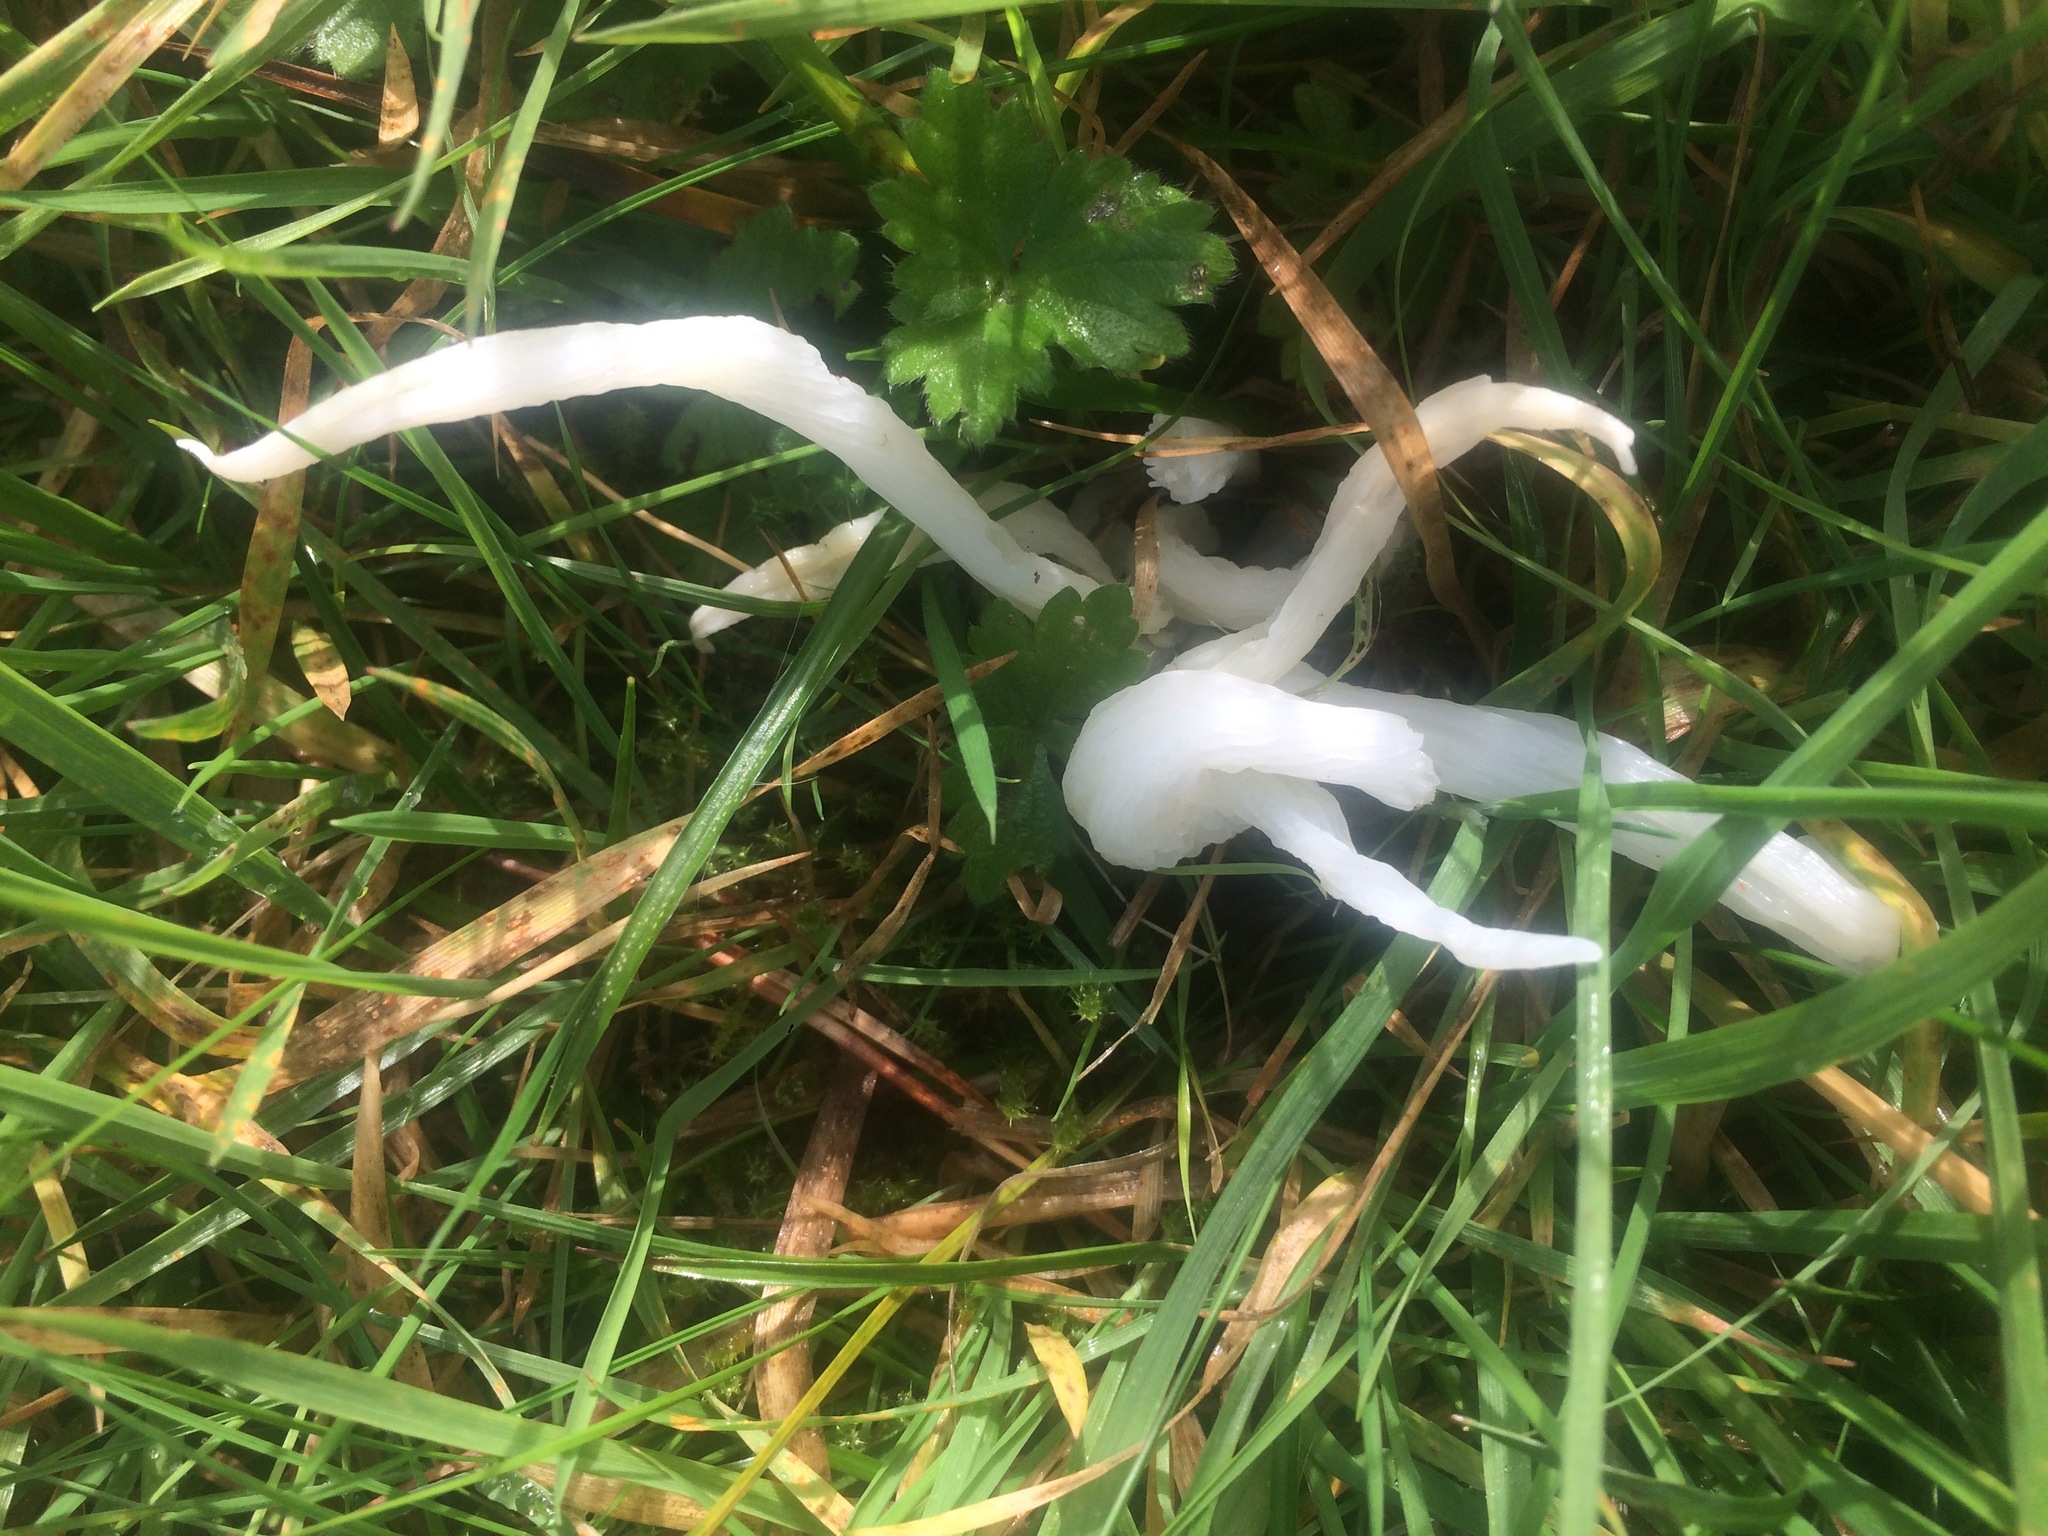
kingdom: Fungi
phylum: Basidiomycota
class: Agaricomycetes
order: Agaricales
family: Clavariaceae
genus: Clavaria
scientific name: Clavaria fragilis
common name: White spindles
